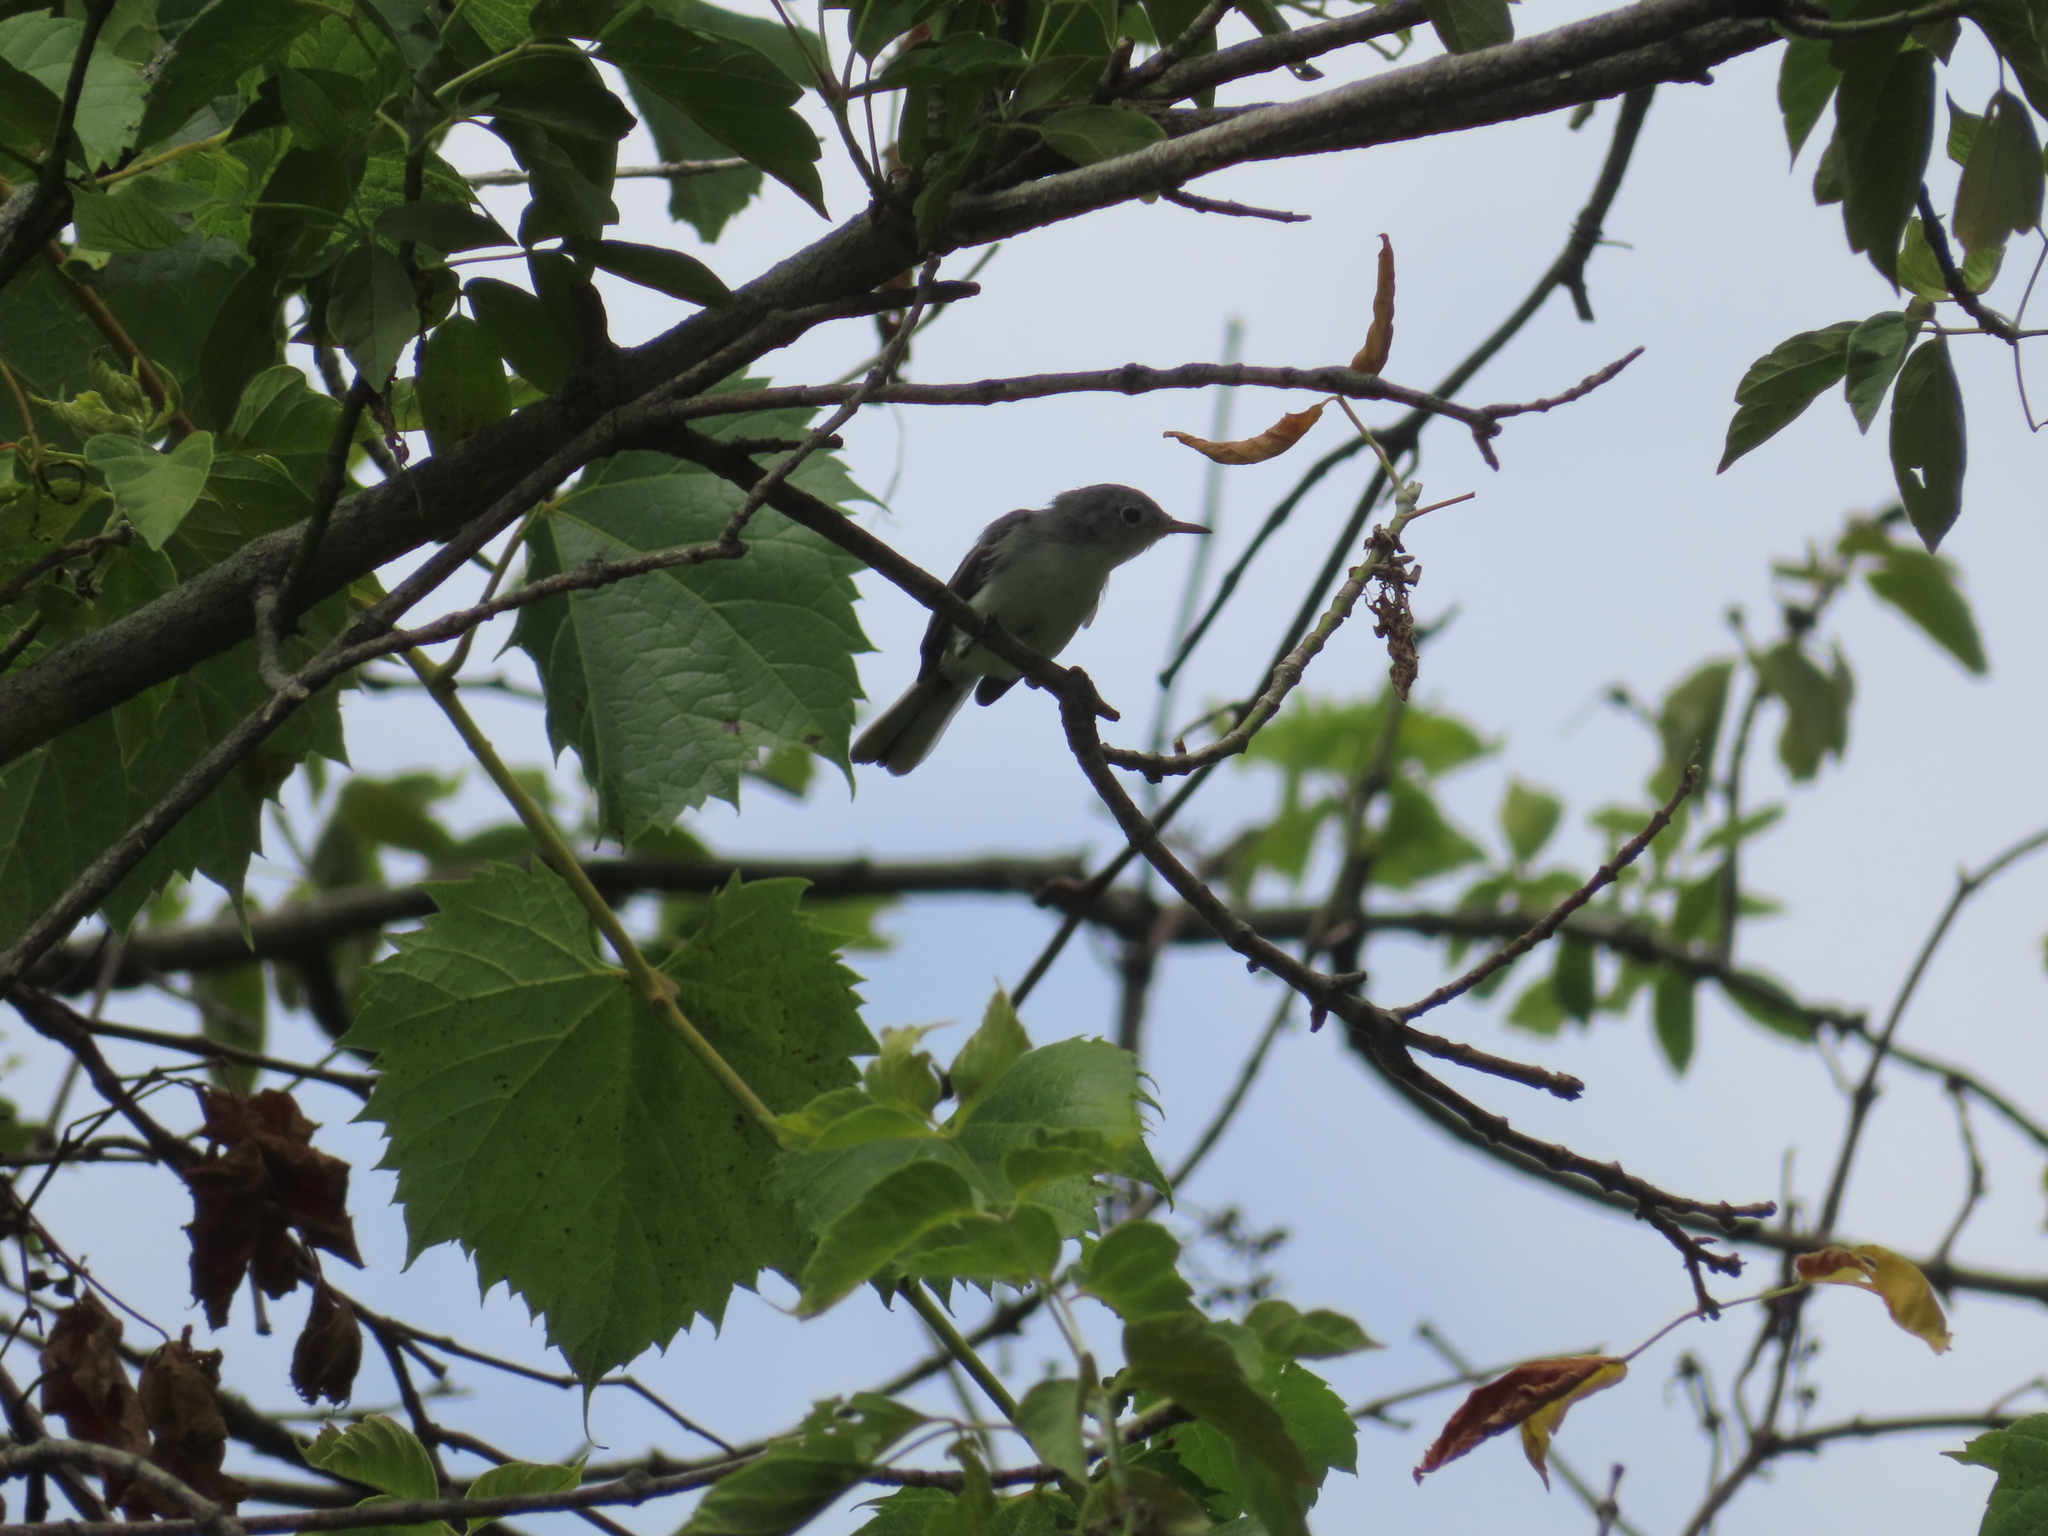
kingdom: Animalia
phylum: Chordata
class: Aves
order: Passeriformes
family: Polioptilidae
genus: Polioptila
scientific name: Polioptila caerulea
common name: Blue-gray gnatcatcher
